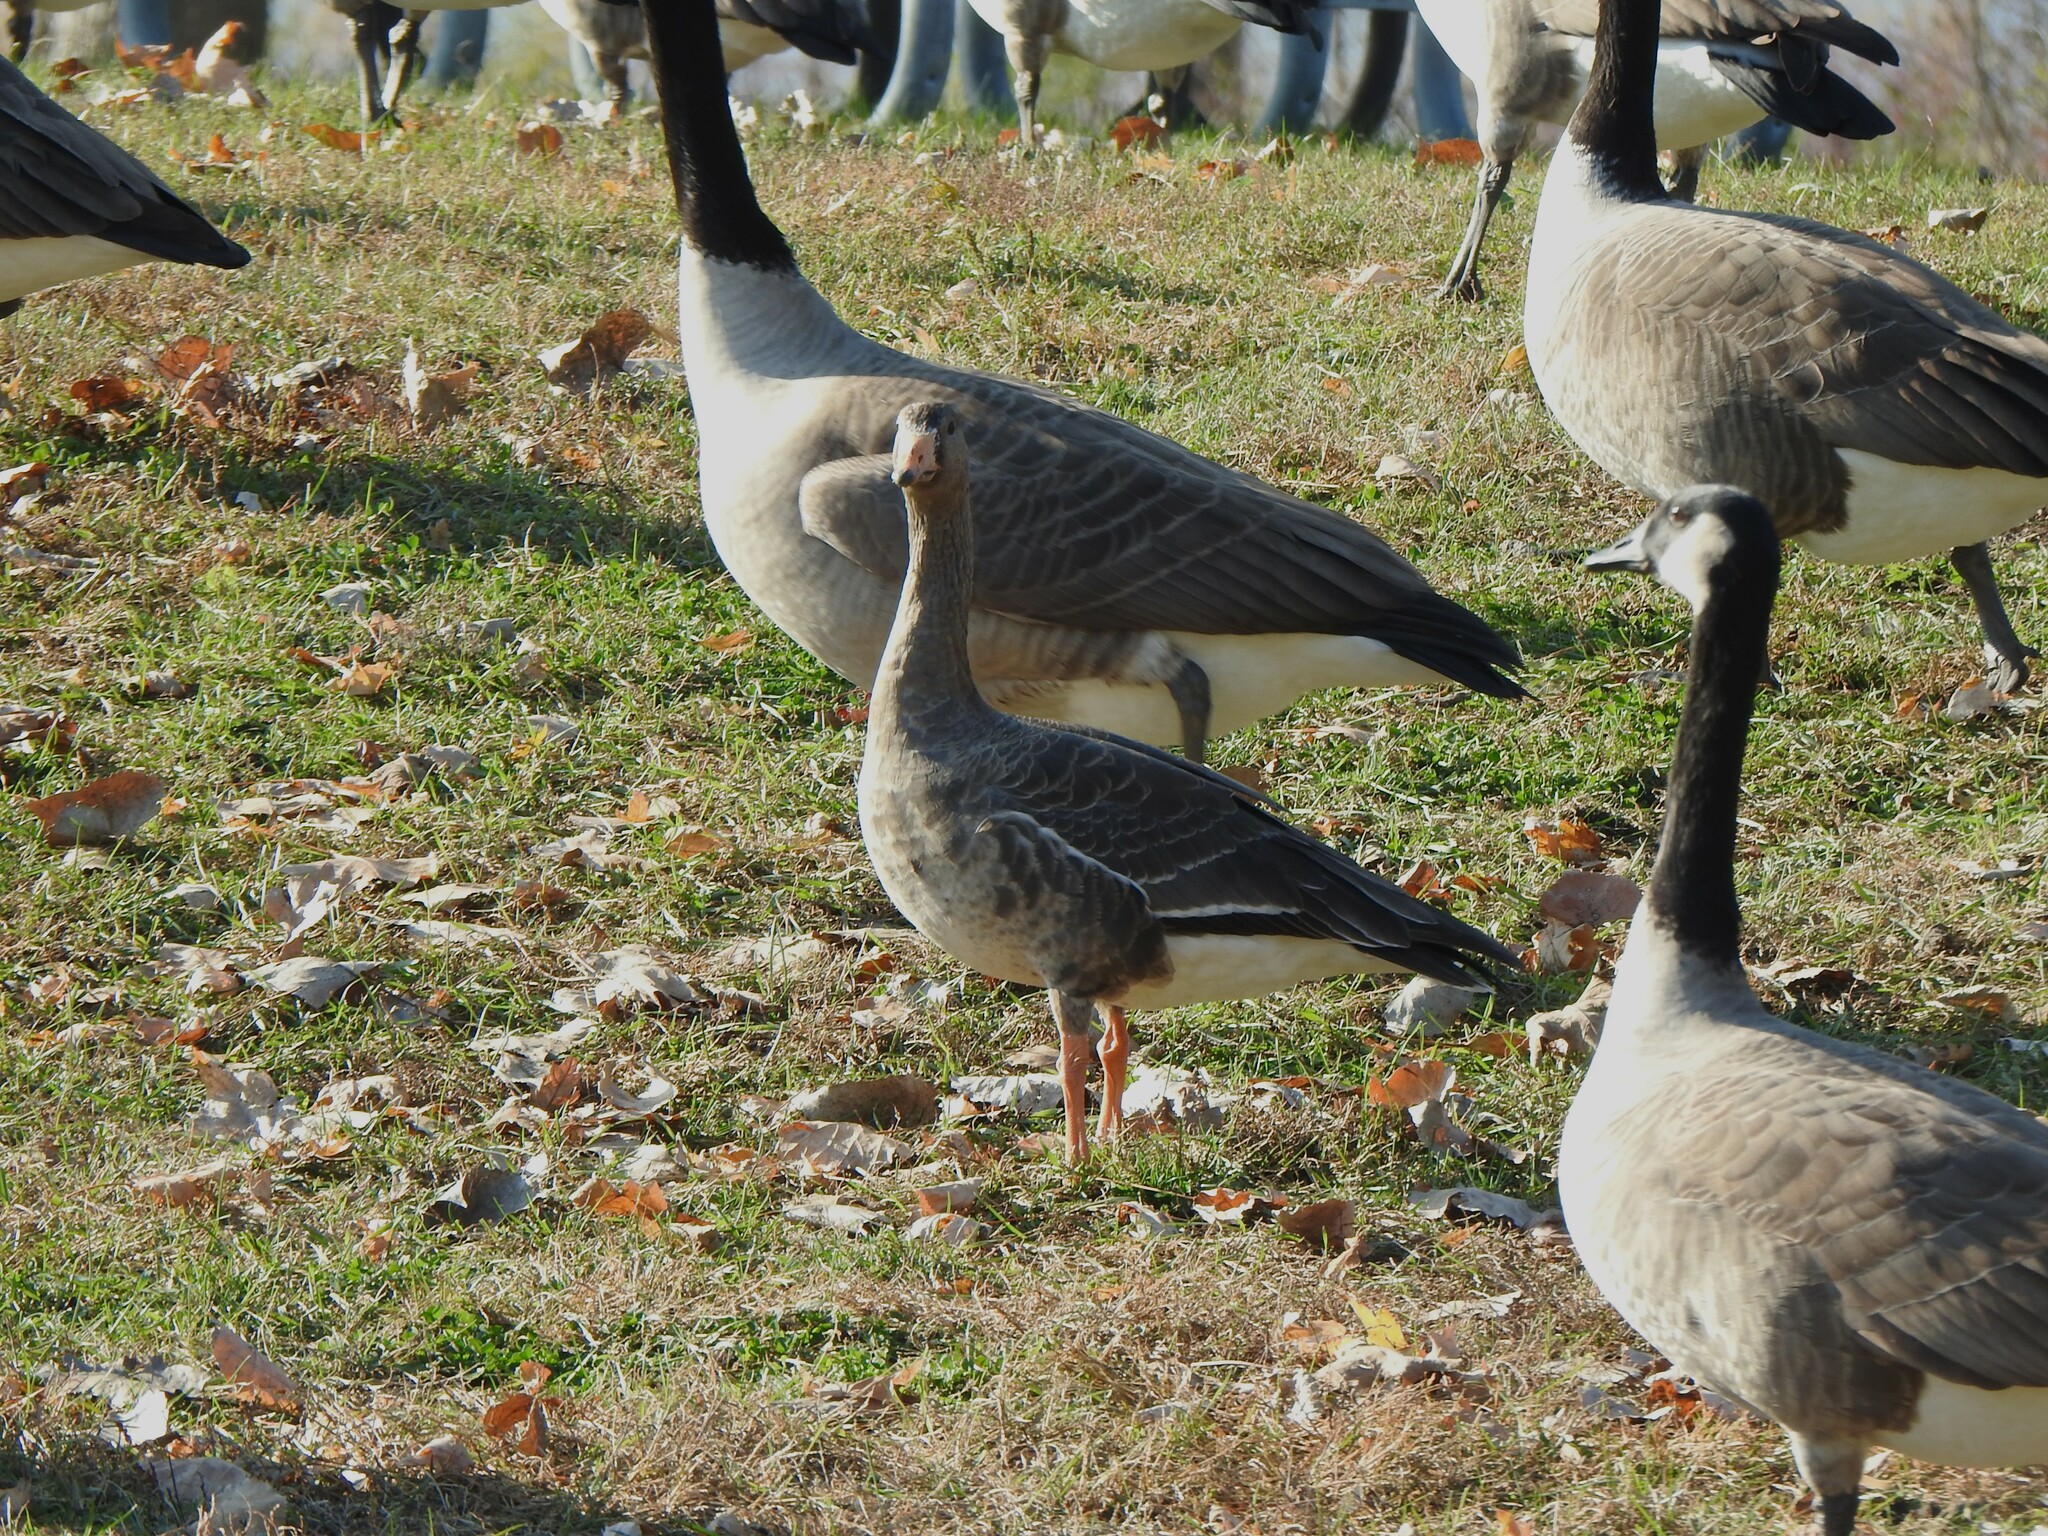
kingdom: Animalia
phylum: Chordata
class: Aves
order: Anseriformes
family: Anatidae
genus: Anser
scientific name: Anser albifrons
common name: Greater white-fronted goose
